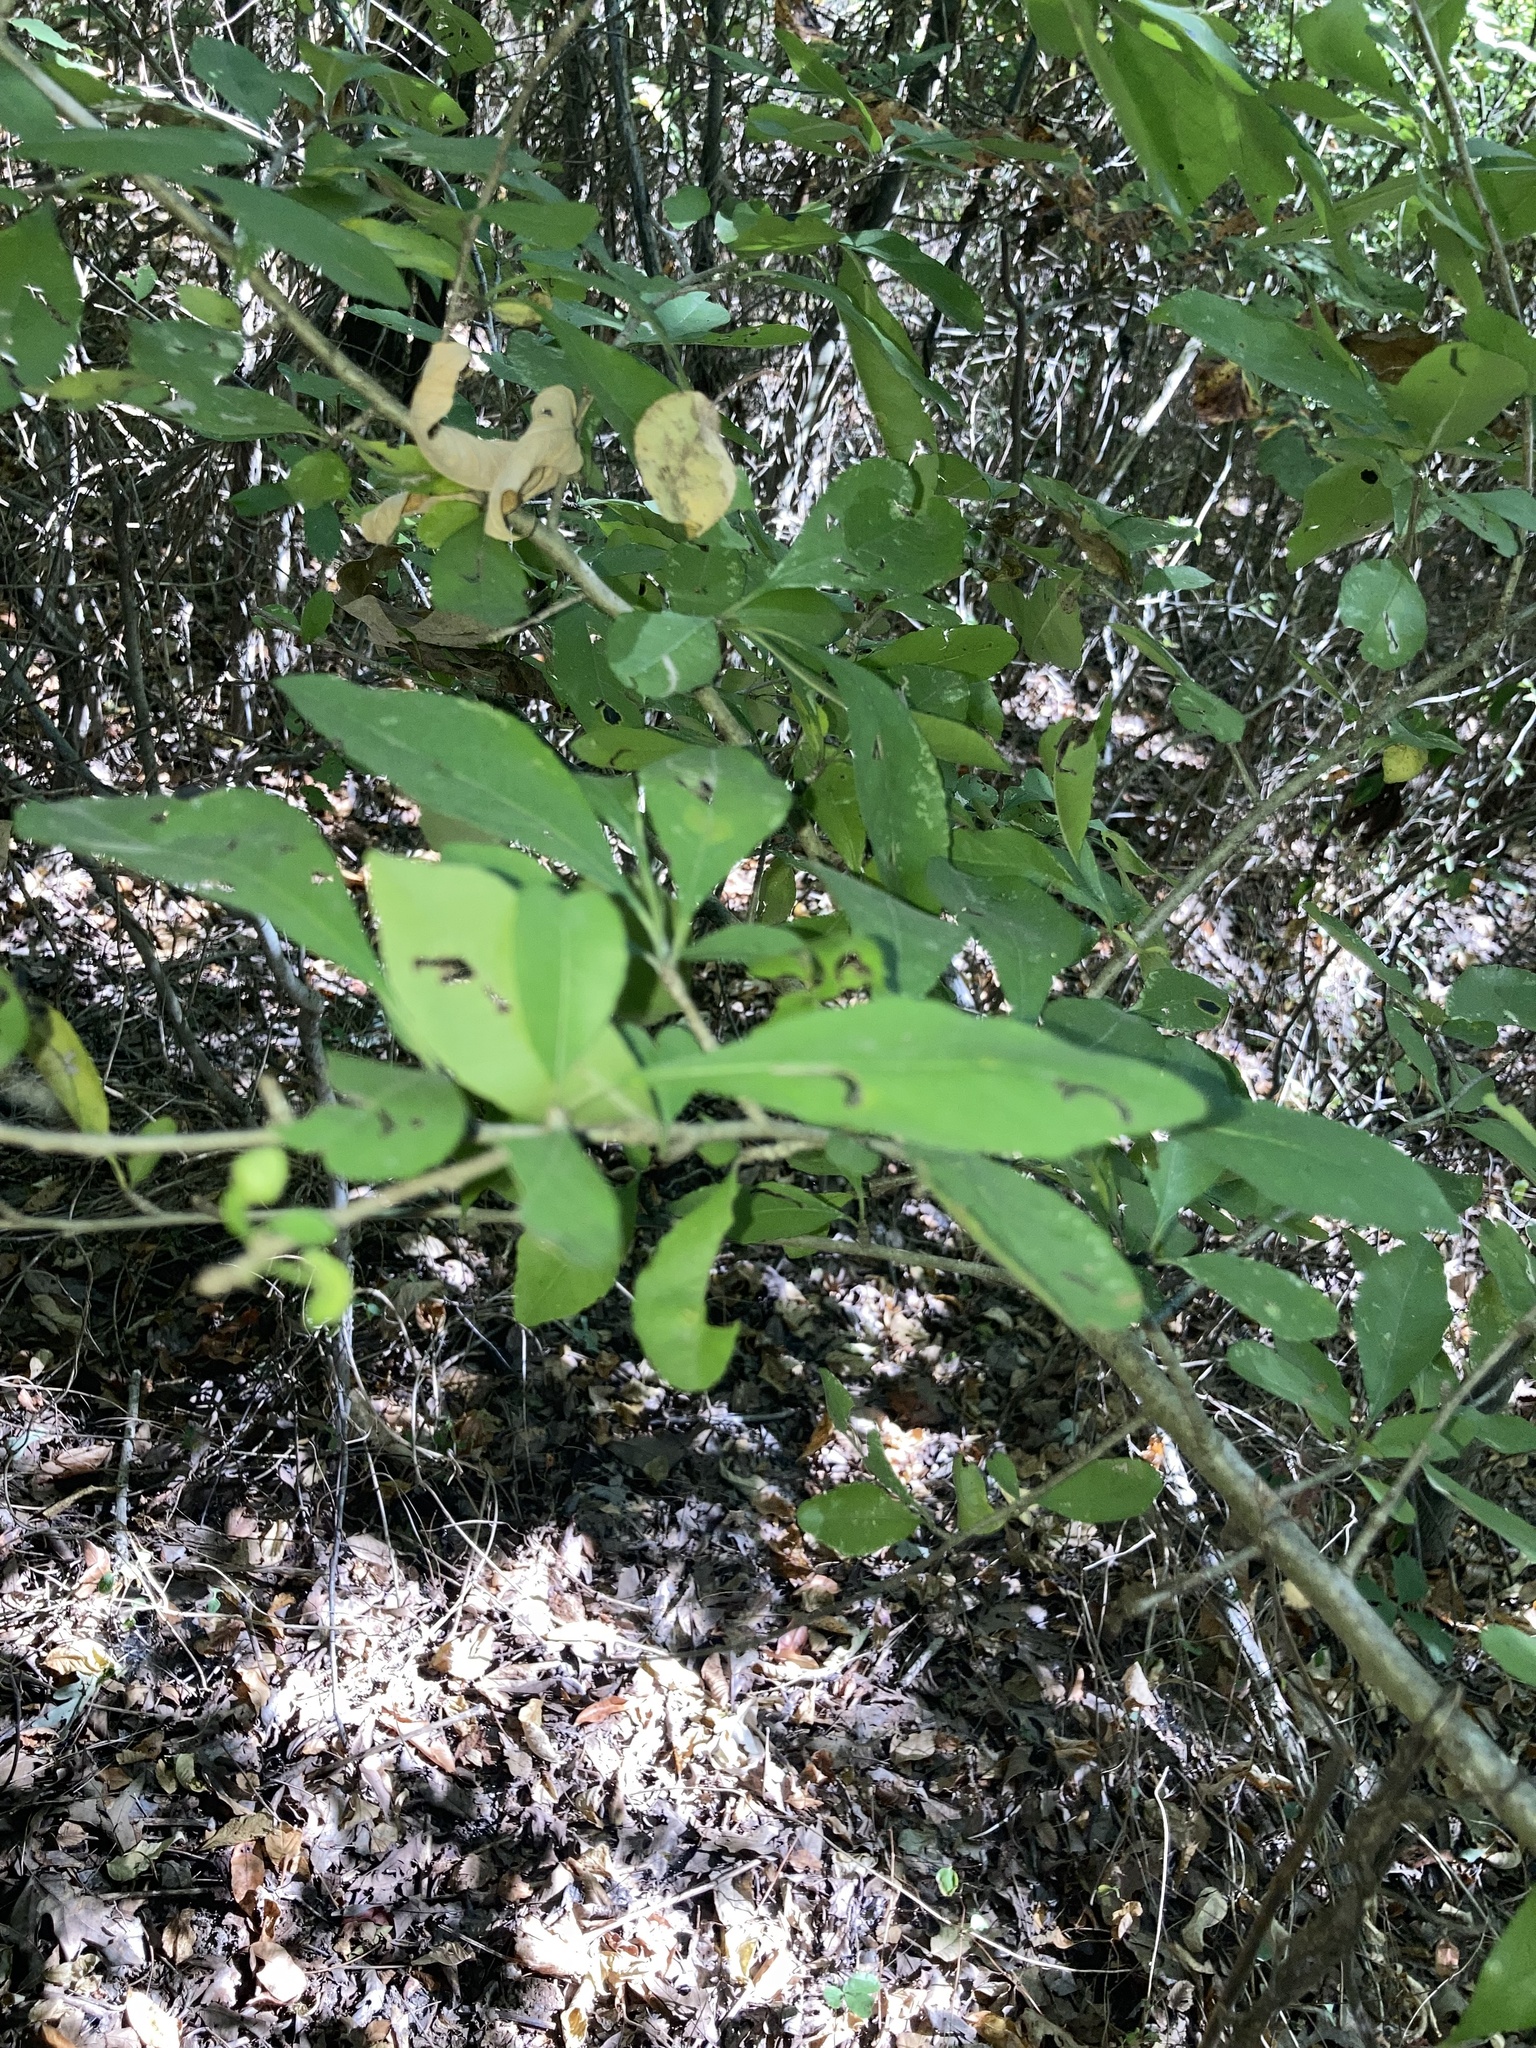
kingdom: Plantae
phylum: Tracheophyta
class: Magnoliopsida
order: Aquifoliales
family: Aquifoliaceae
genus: Ilex
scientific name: Ilex decidua
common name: Possum-haw
